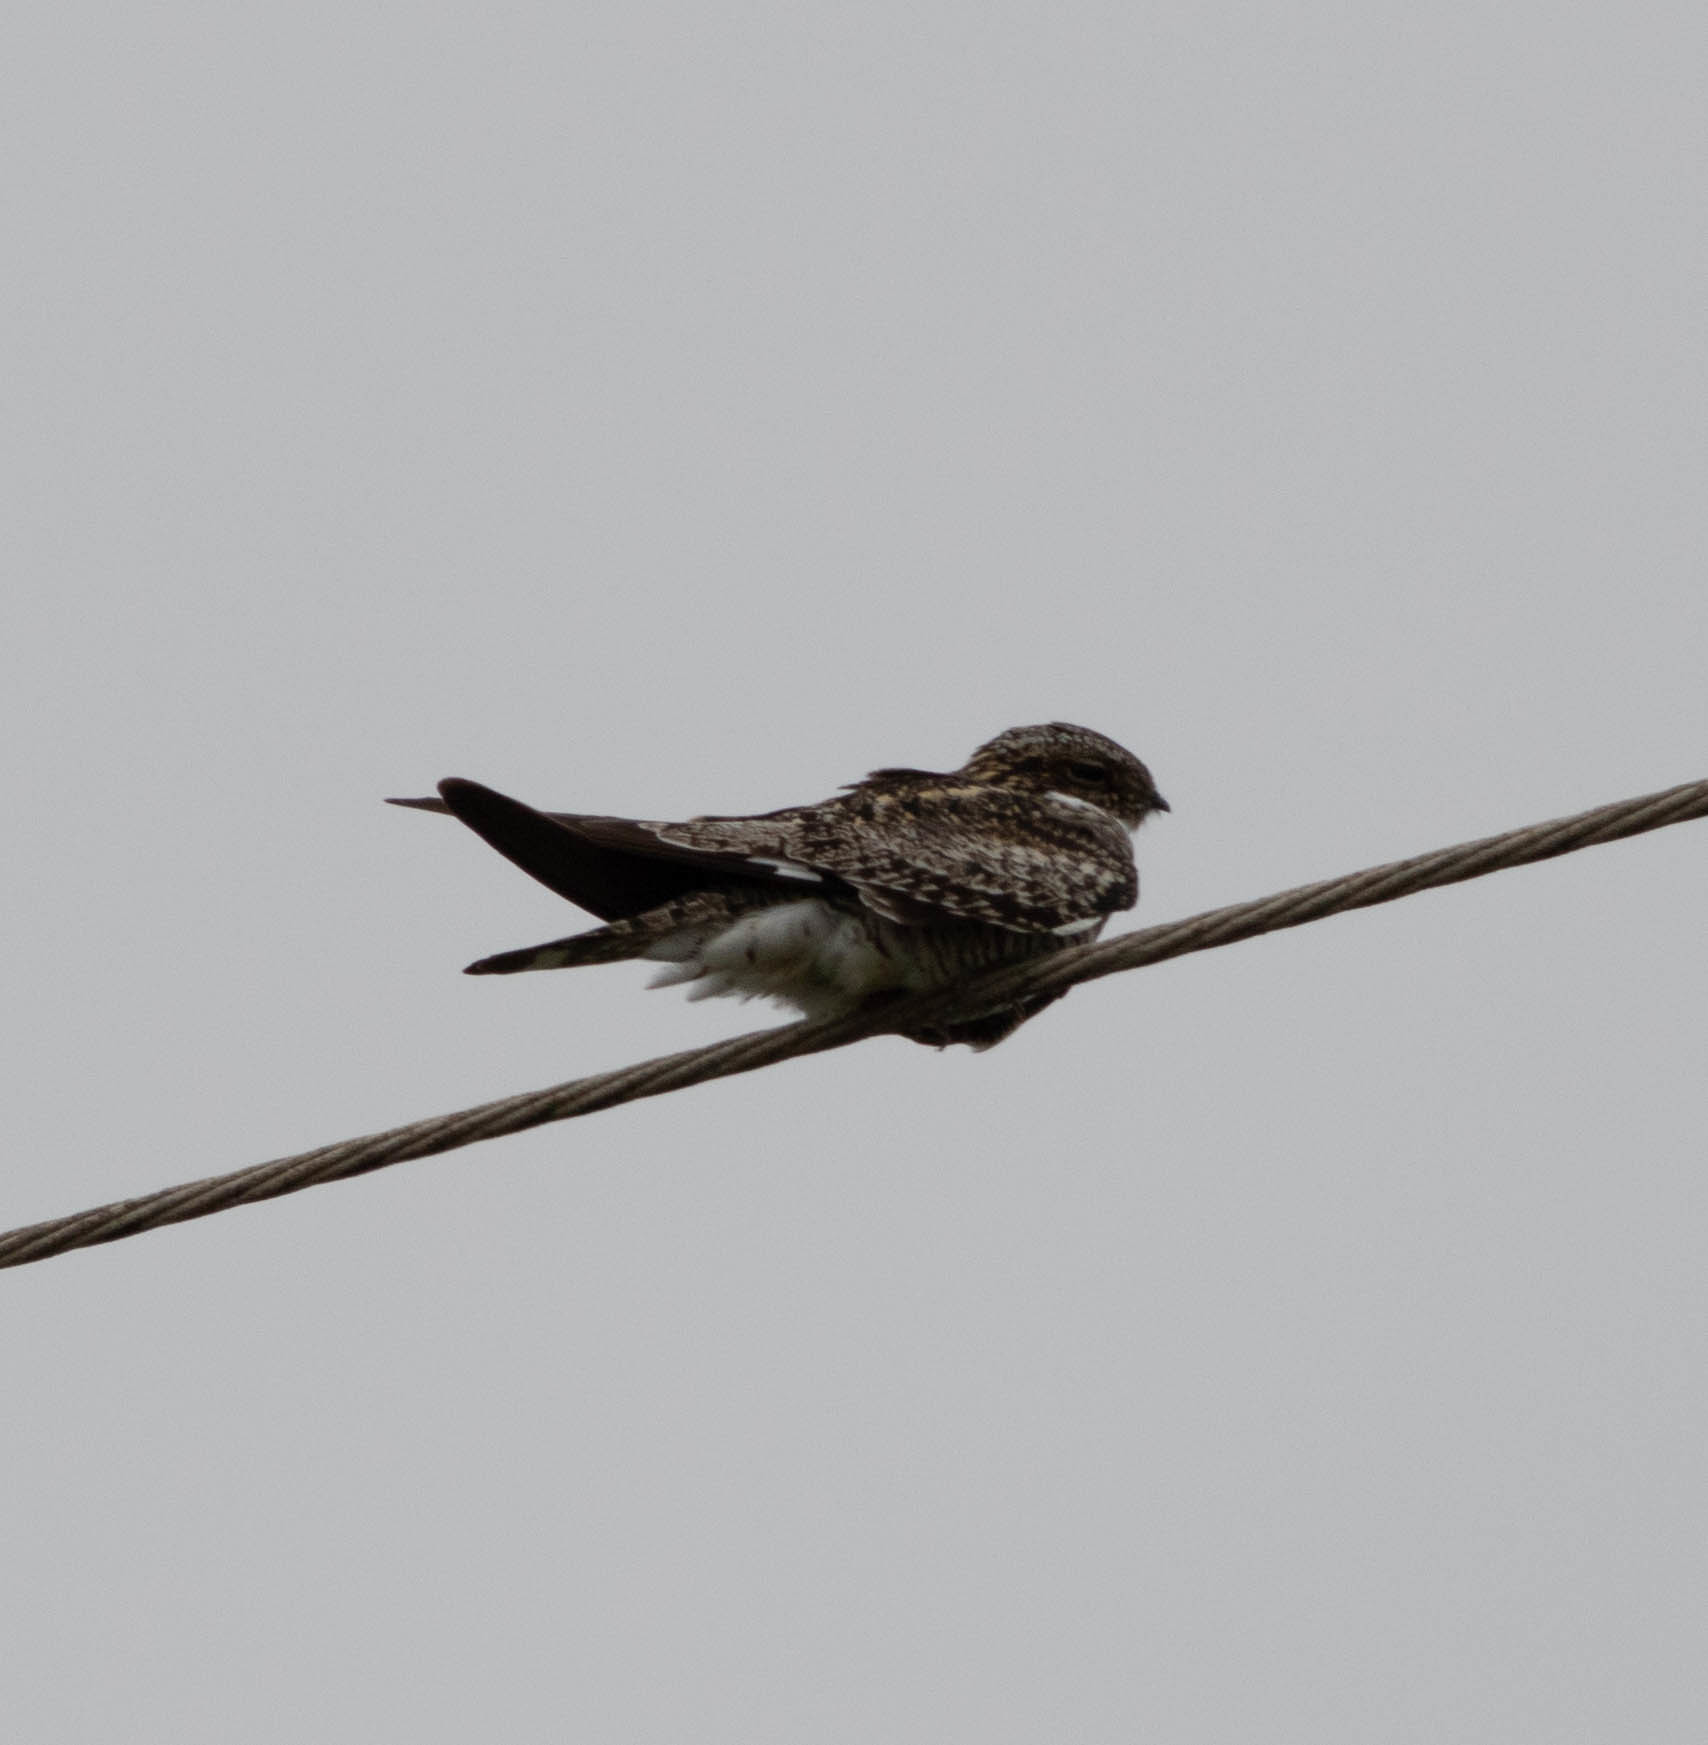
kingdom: Animalia
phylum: Chordata
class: Aves
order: Caprimulgiformes
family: Caprimulgidae
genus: Chordeiles
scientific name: Chordeiles minor
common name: Common nighthawk
